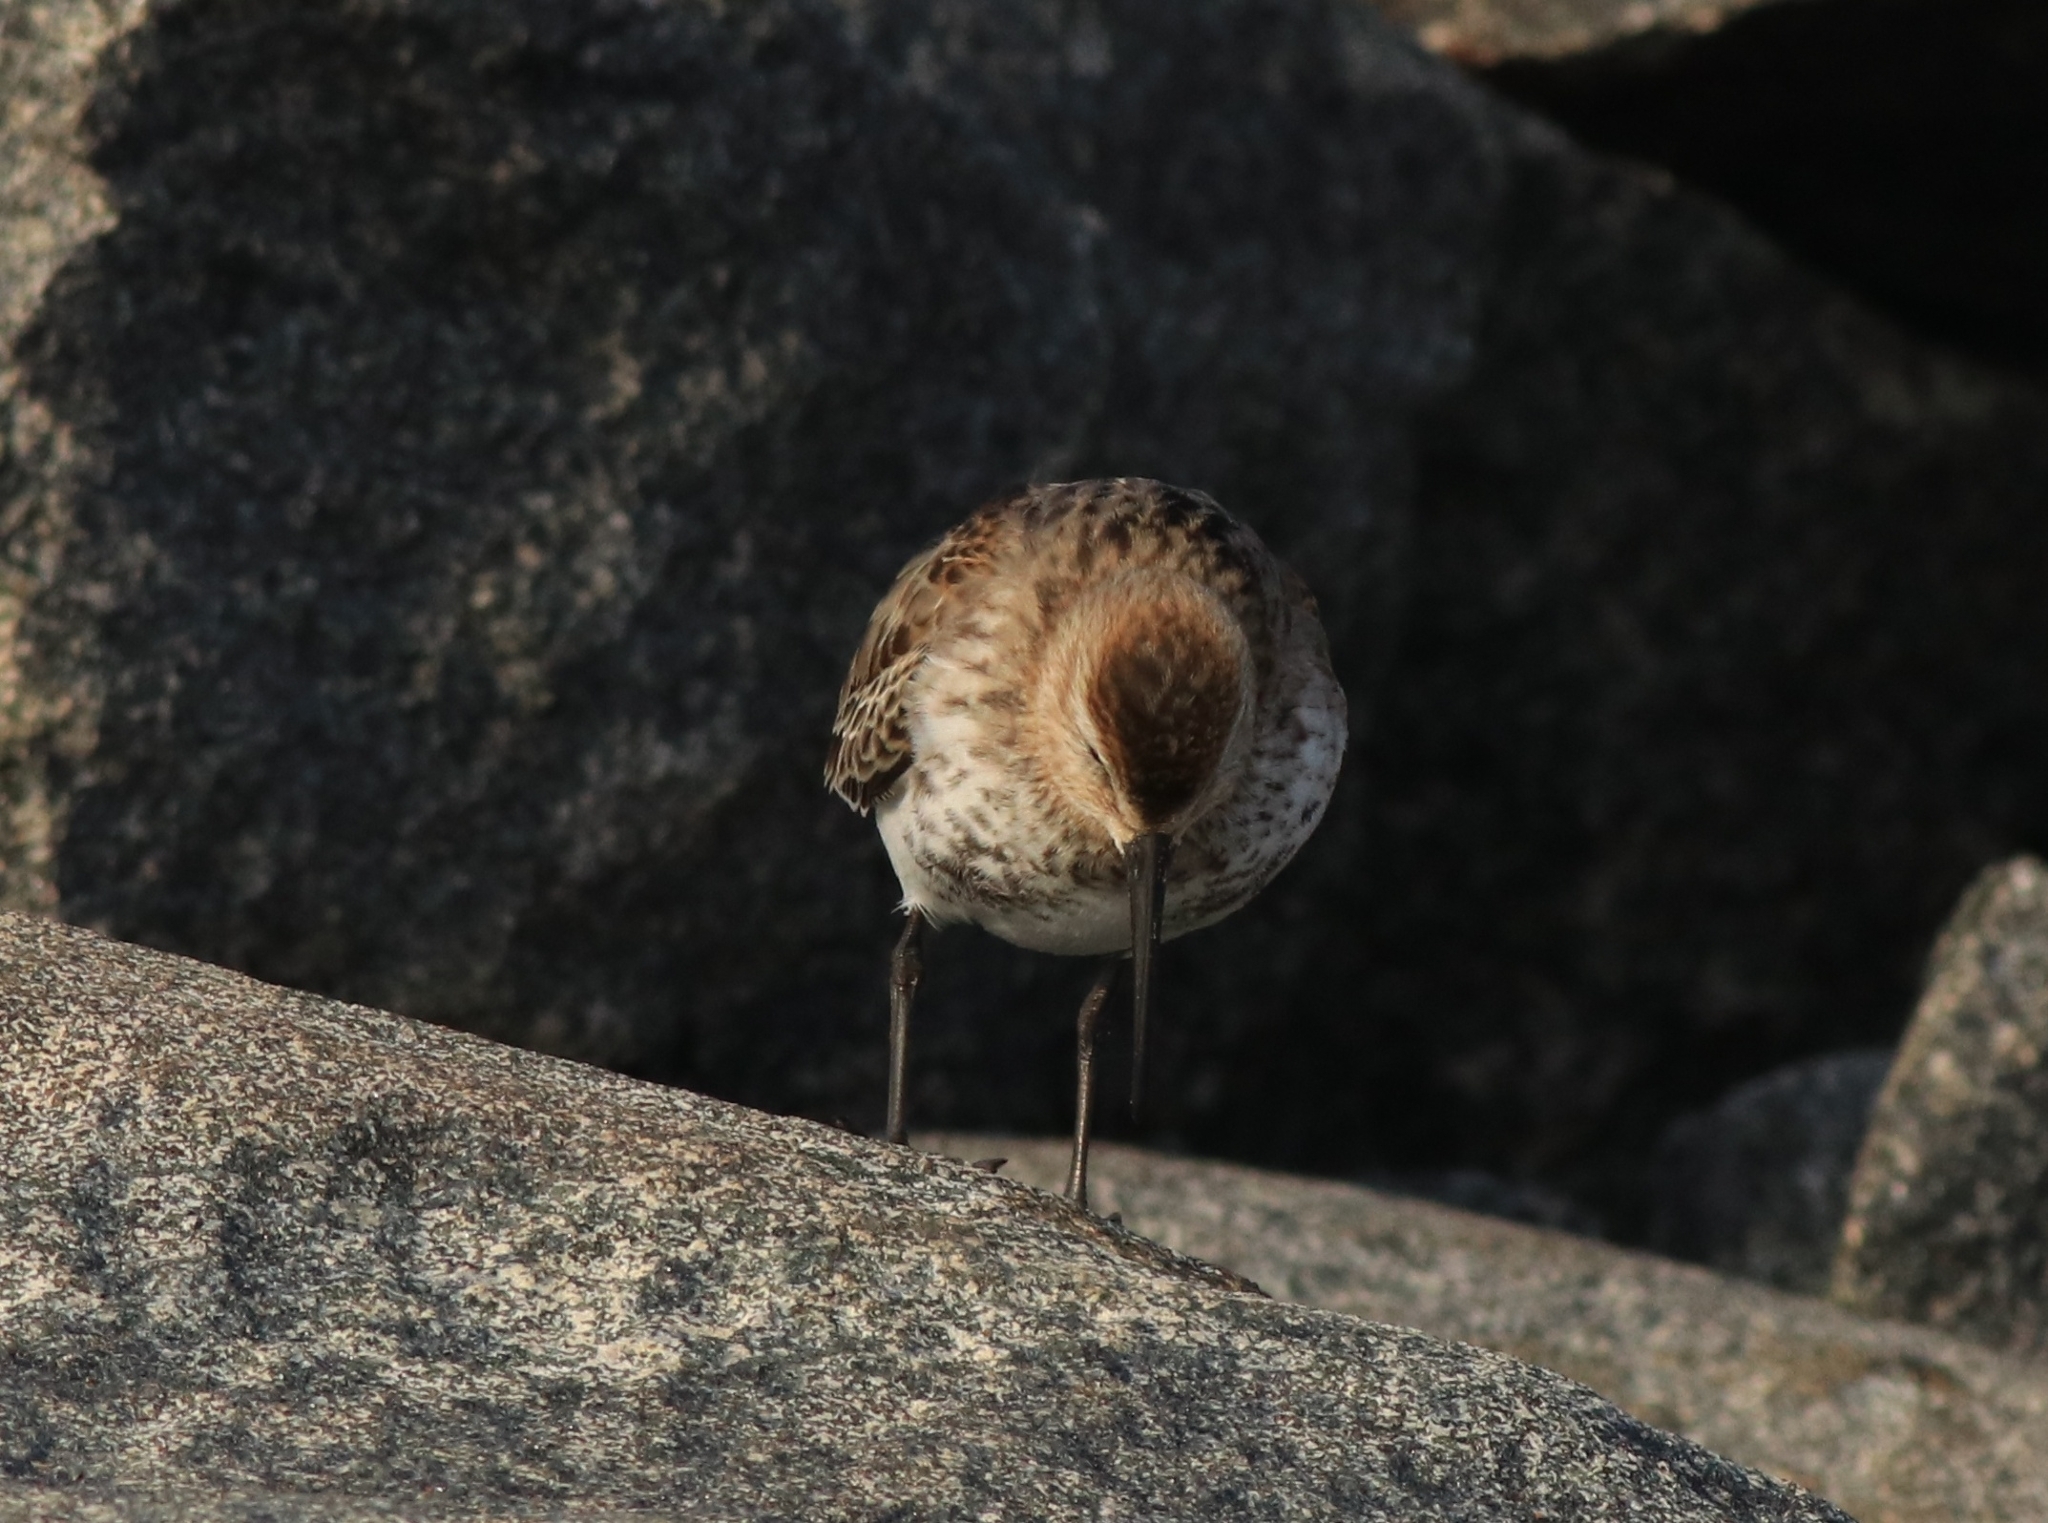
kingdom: Animalia
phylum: Chordata
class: Aves
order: Charadriiformes
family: Scolopacidae
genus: Calidris
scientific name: Calidris alpina
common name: Dunlin
